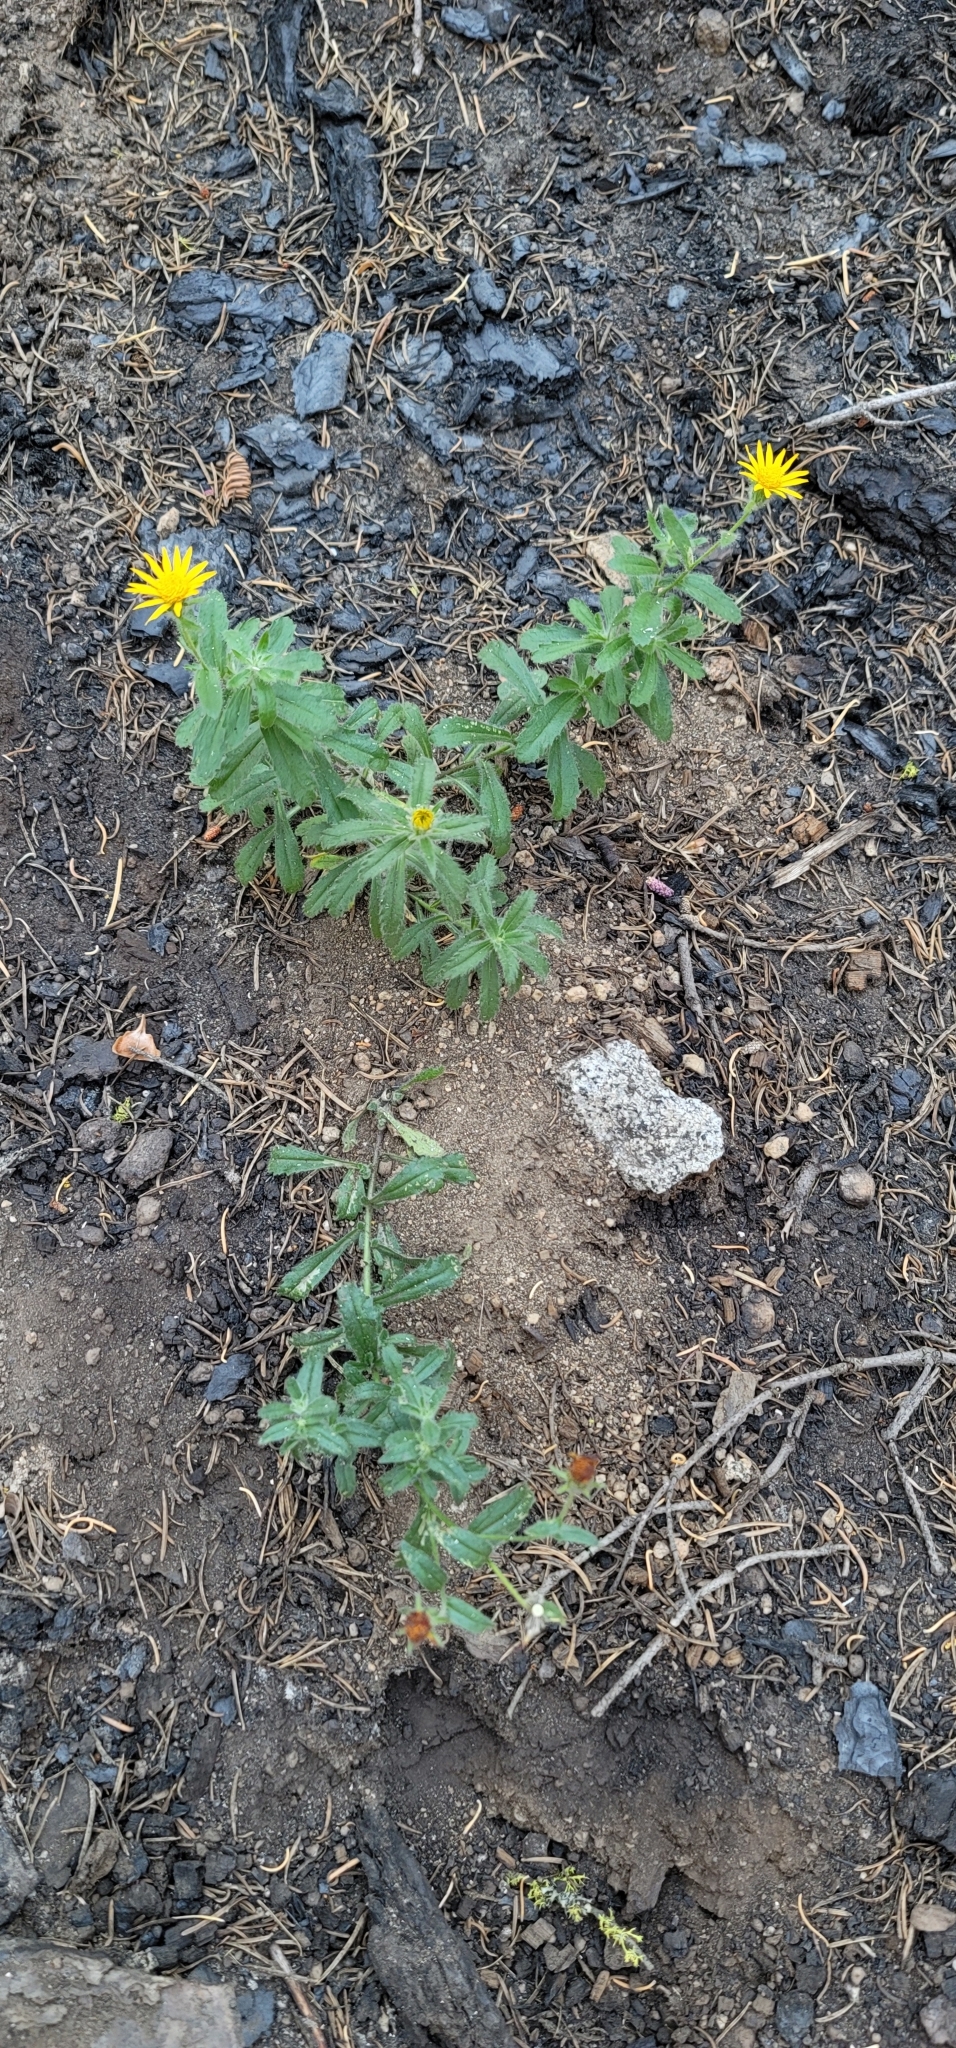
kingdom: Plantae
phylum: Tracheophyta
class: Magnoliopsida
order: Asterales
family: Asteraceae
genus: Hulsea
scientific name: Hulsea brevifolia
